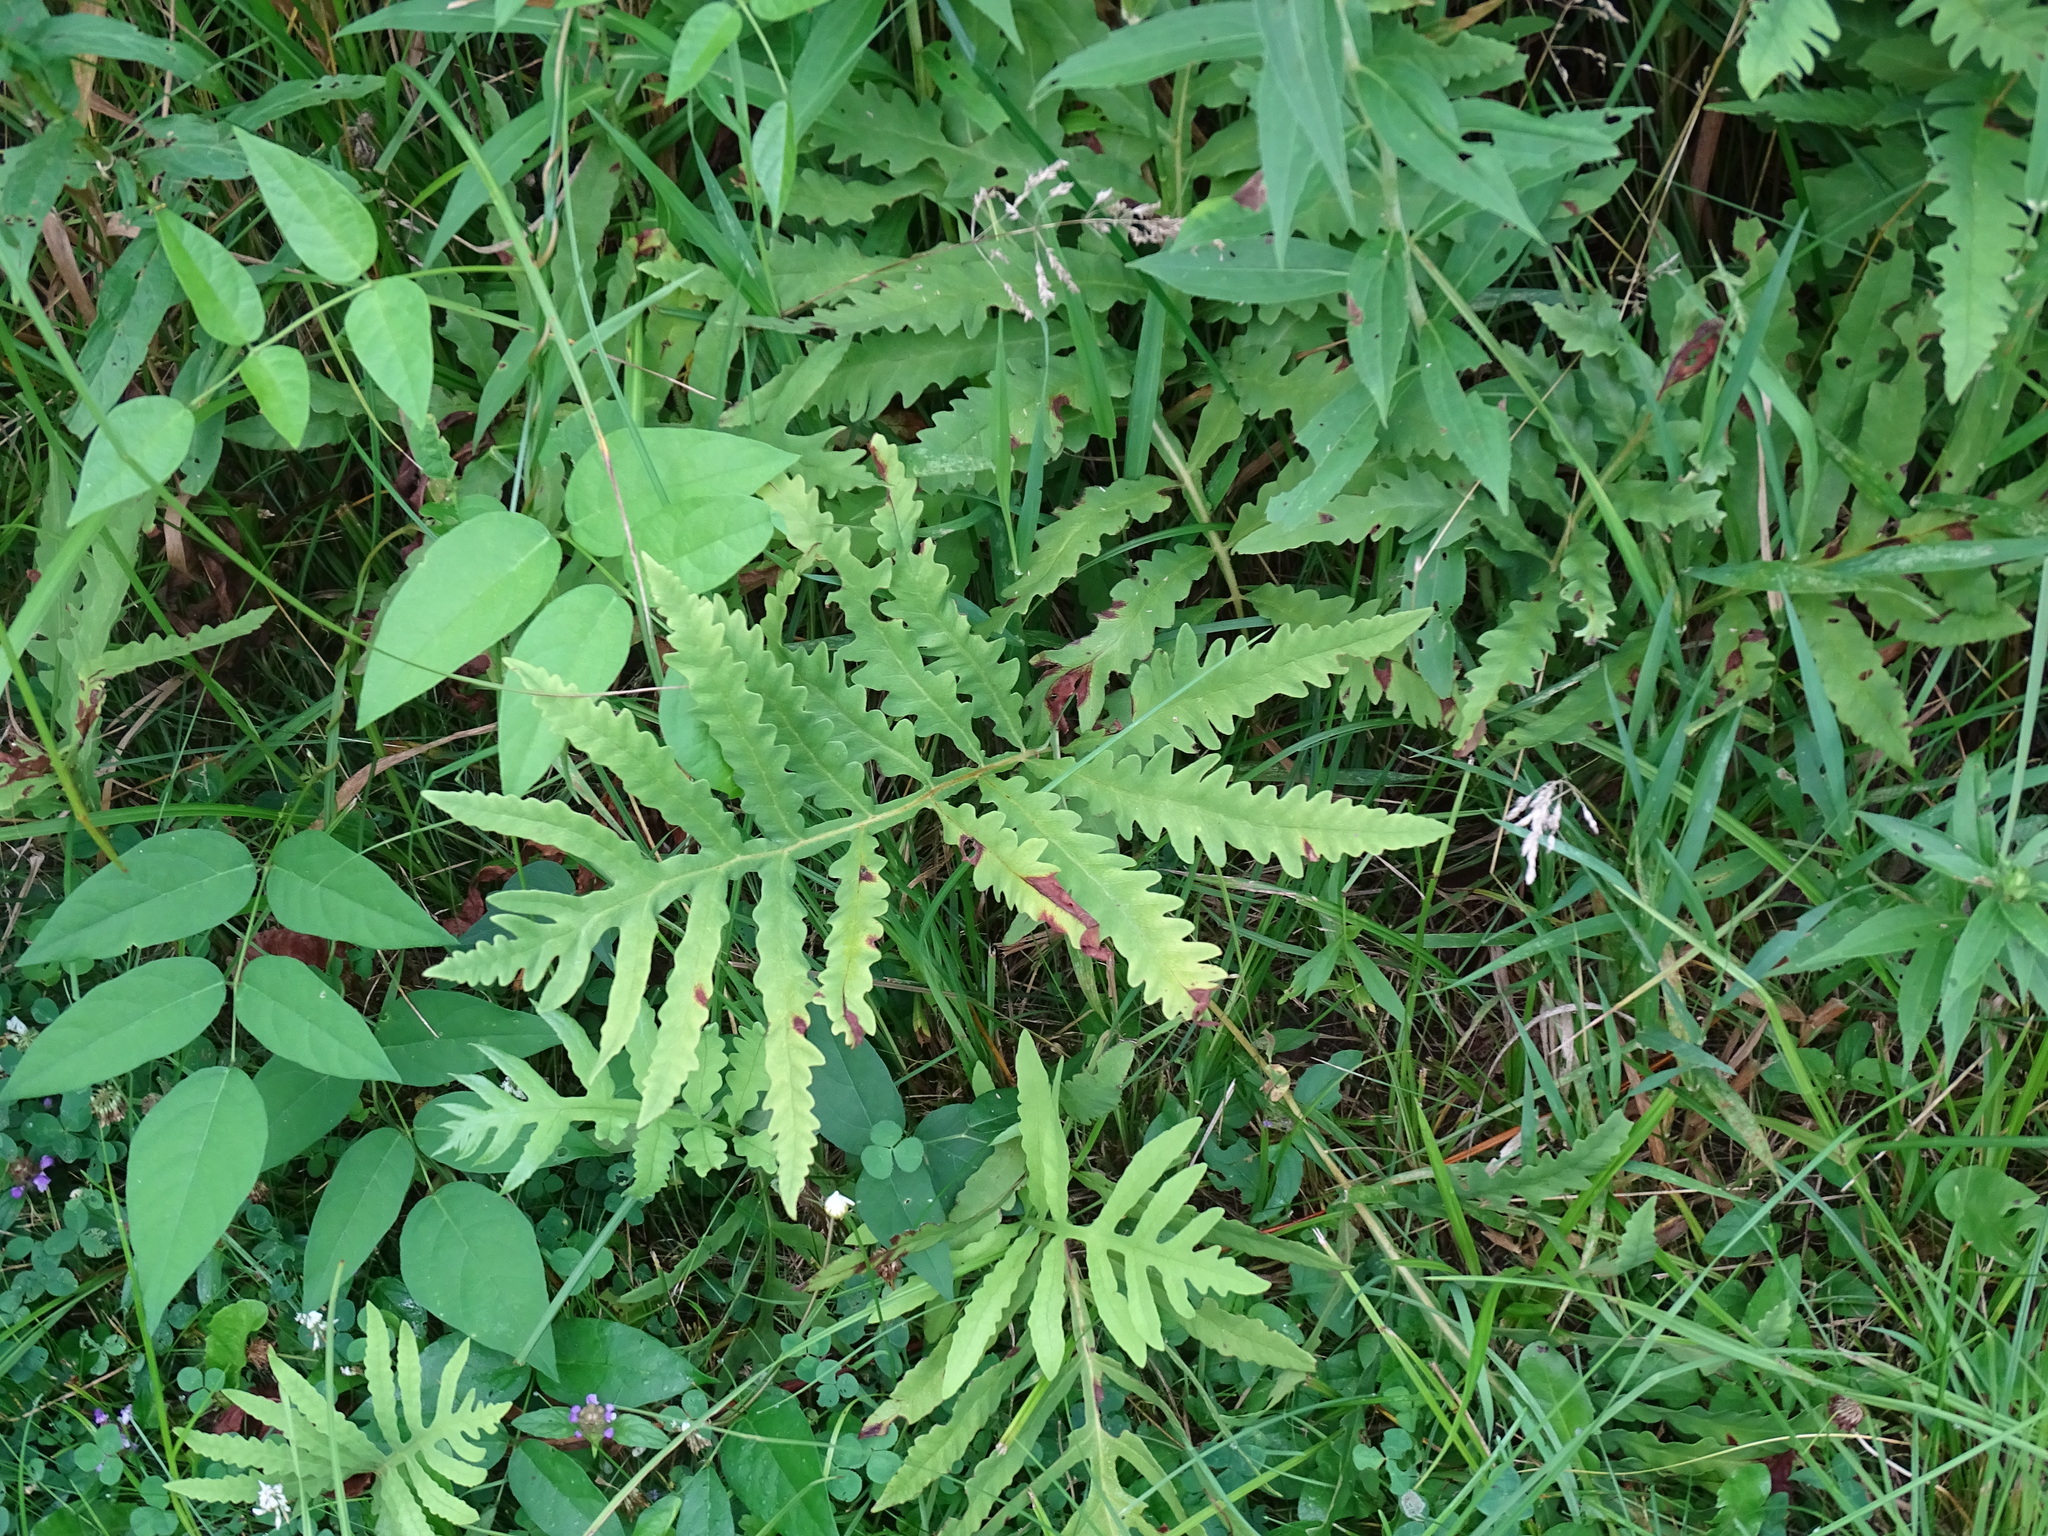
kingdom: Plantae
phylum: Tracheophyta
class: Polypodiopsida
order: Polypodiales
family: Onocleaceae
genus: Onoclea
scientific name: Onoclea sensibilis
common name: Sensitive fern
